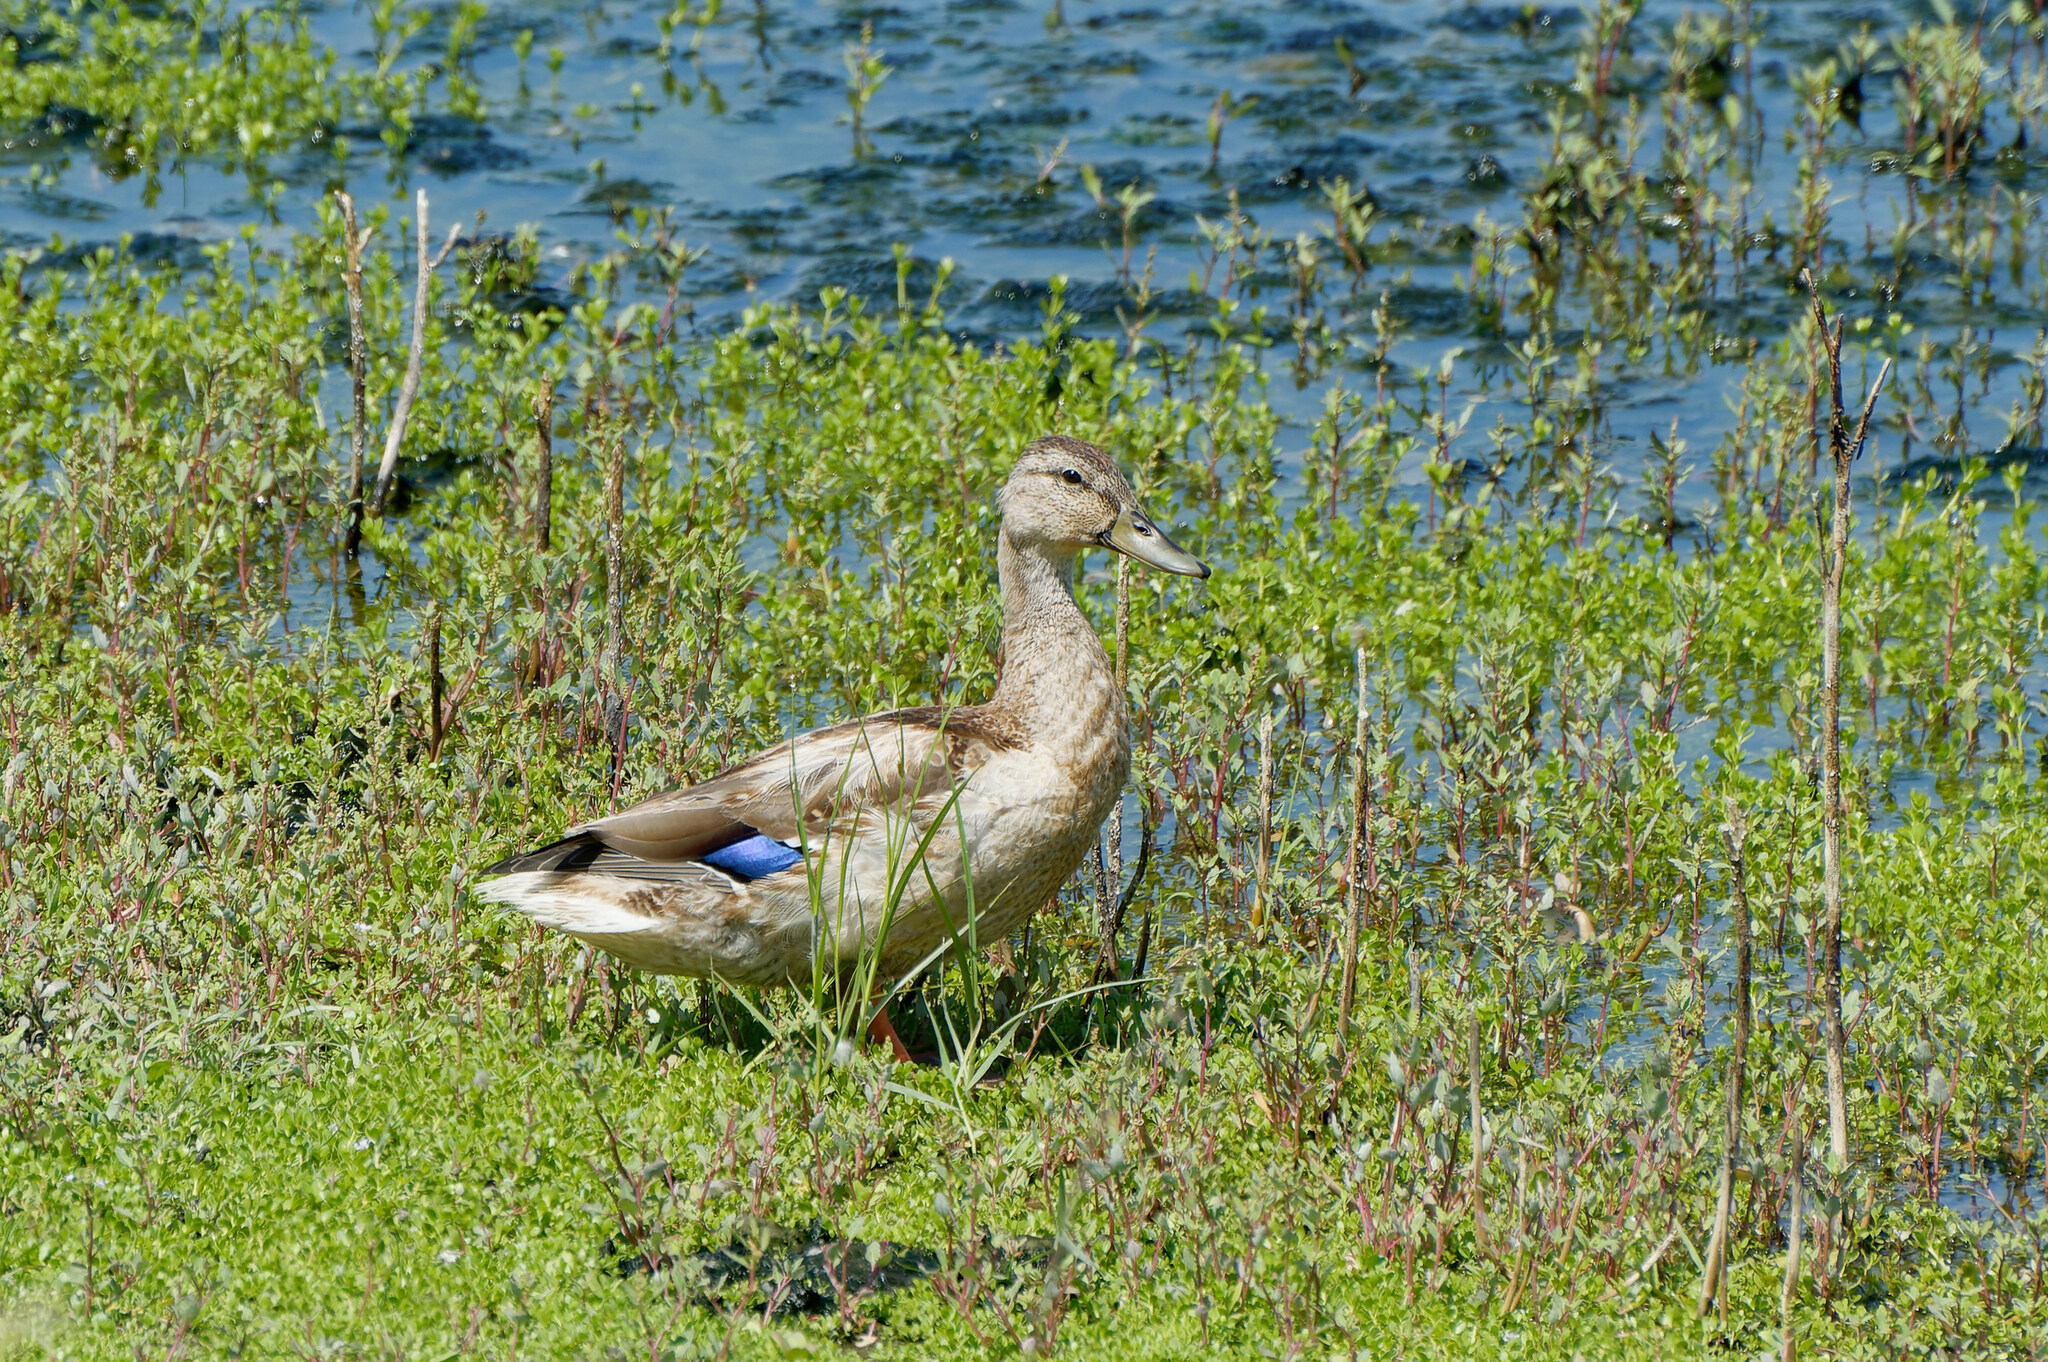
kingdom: Animalia
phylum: Chordata
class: Aves
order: Anseriformes
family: Anatidae
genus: Anas
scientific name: Anas platyrhynchos
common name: Mallard
